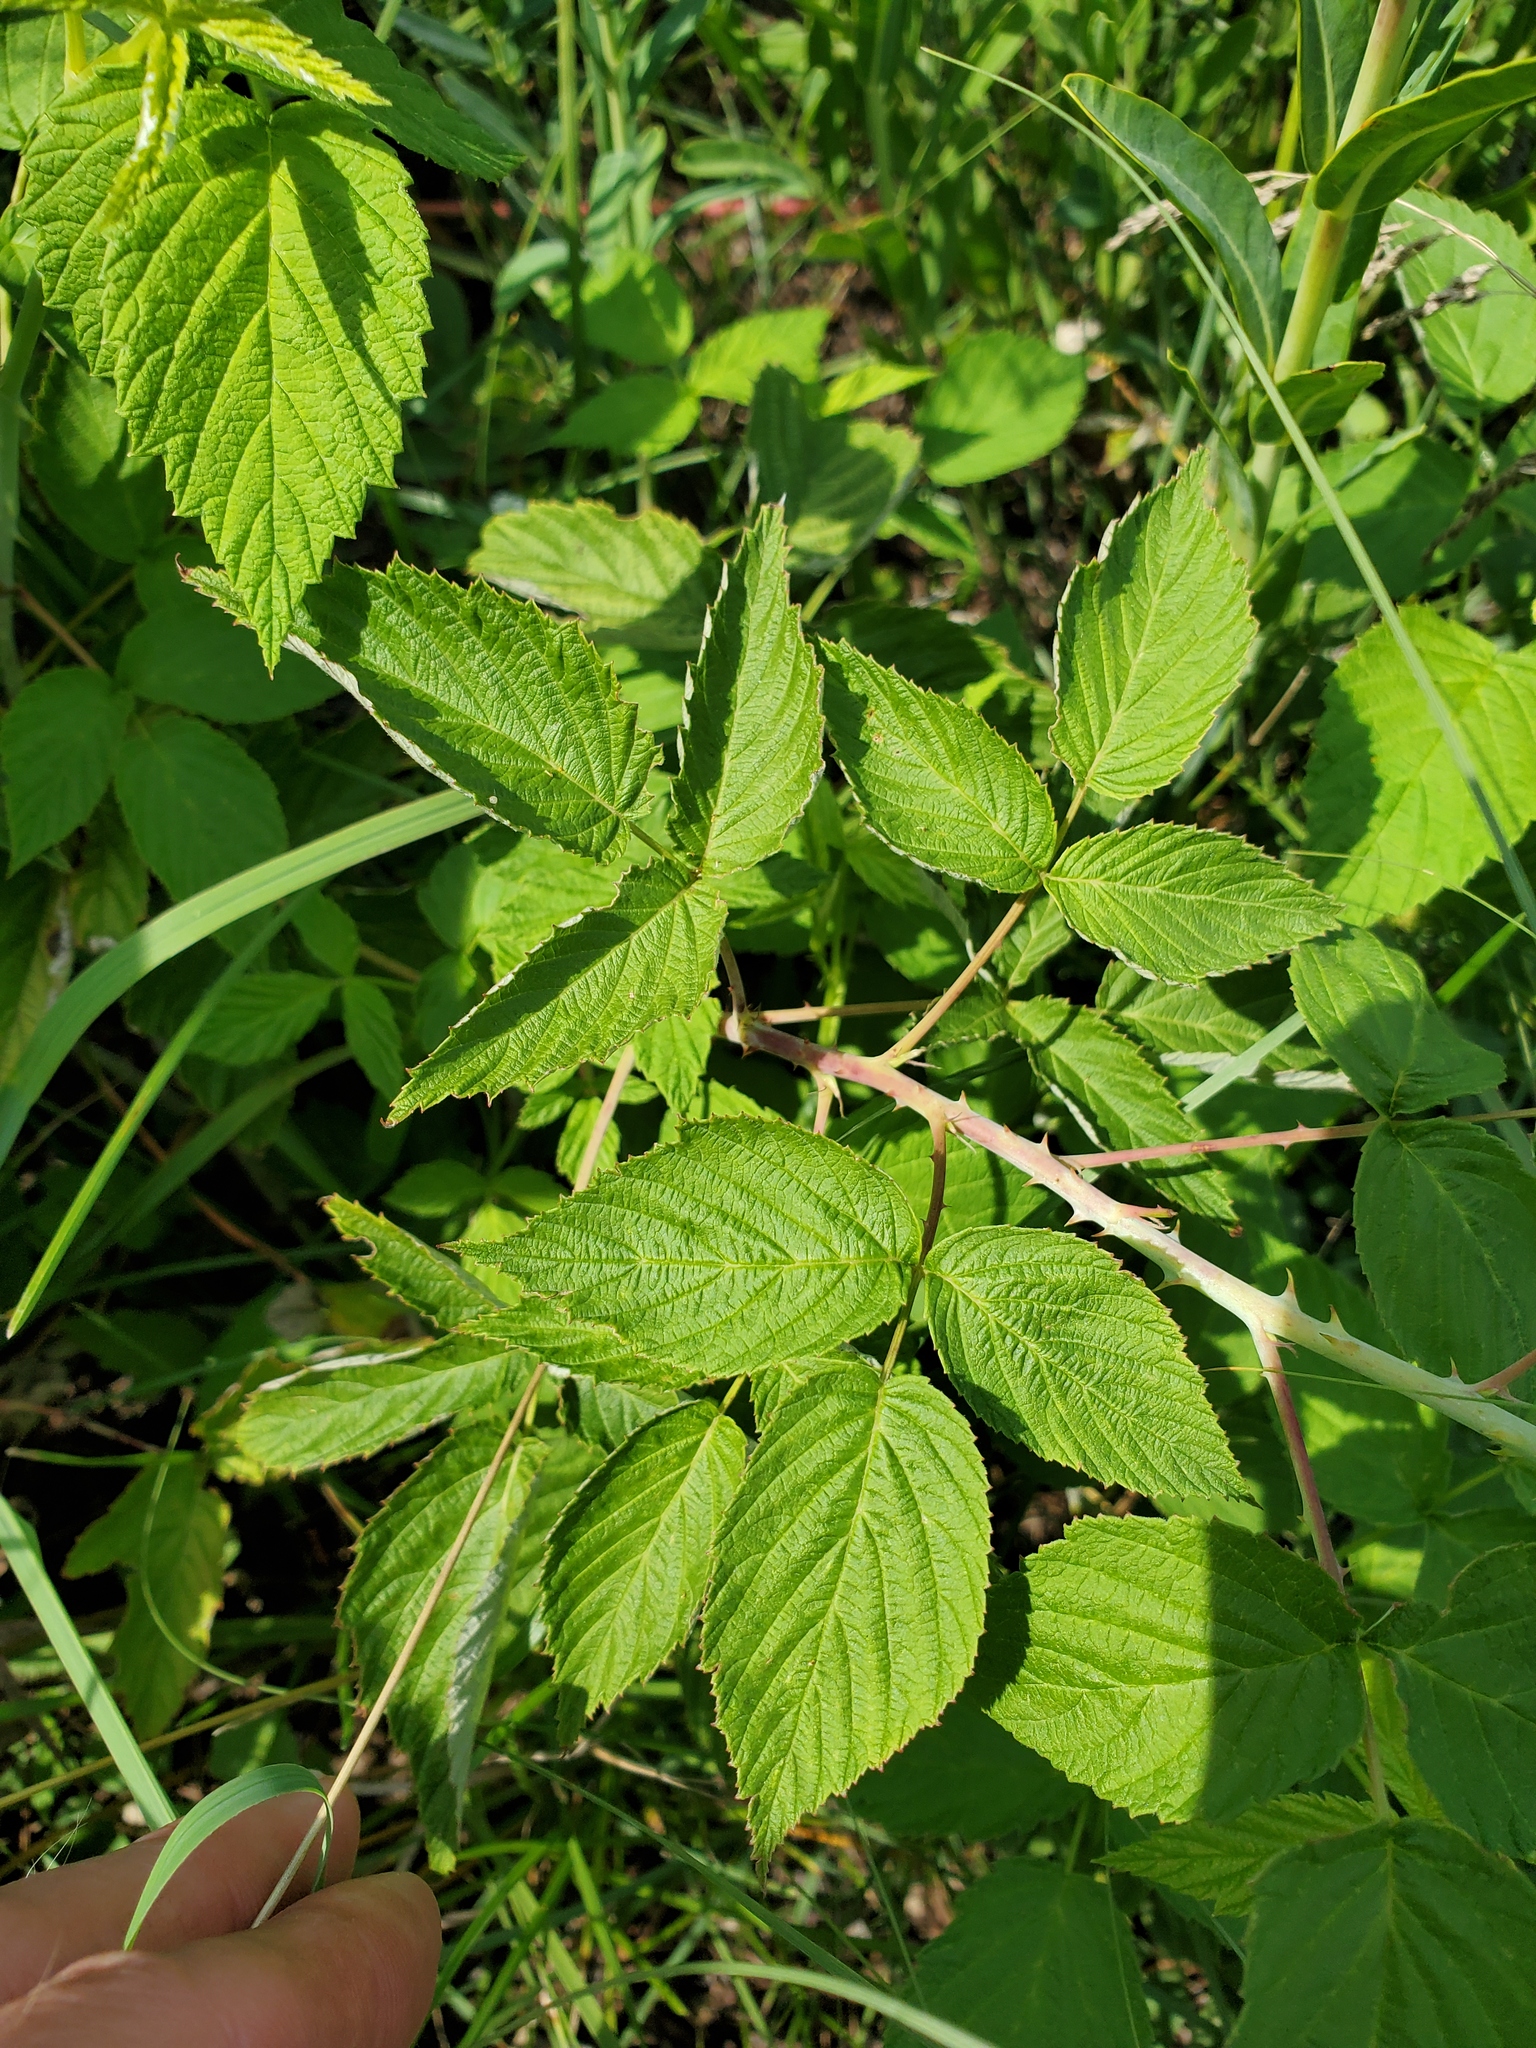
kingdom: Plantae
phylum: Tracheophyta
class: Magnoliopsida
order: Rosales
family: Rosaceae
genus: Rubus
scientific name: Rubus occidentalis
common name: Black raspberry
